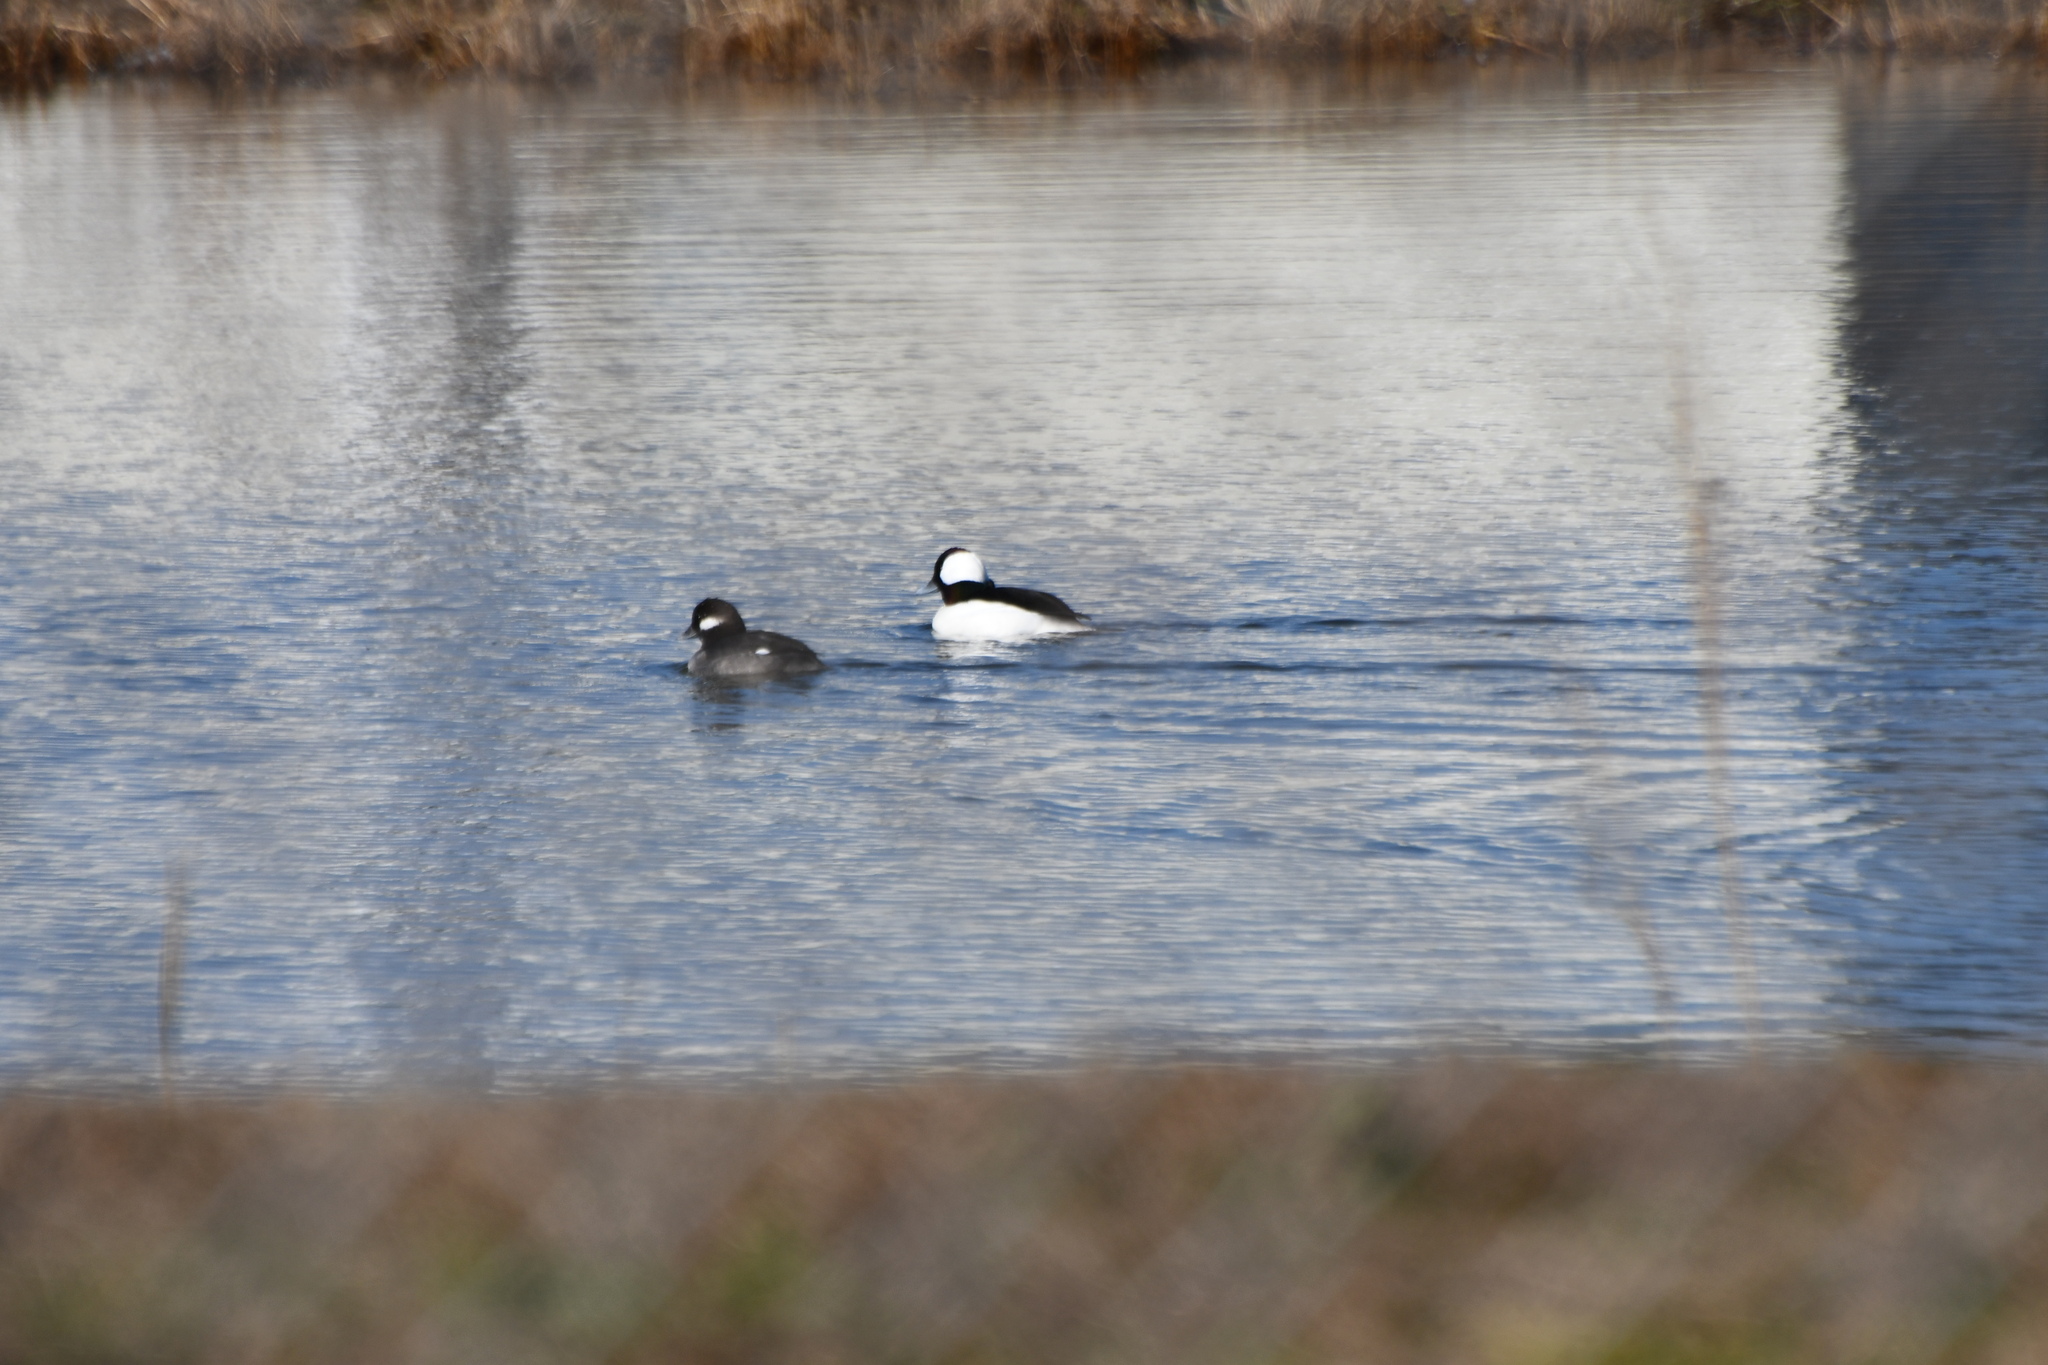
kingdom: Animalia
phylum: Chordata
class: Aves
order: Anseriformes
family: Anatidae
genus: Bucephala
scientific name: Bucephala albeola
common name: Bufflehead
